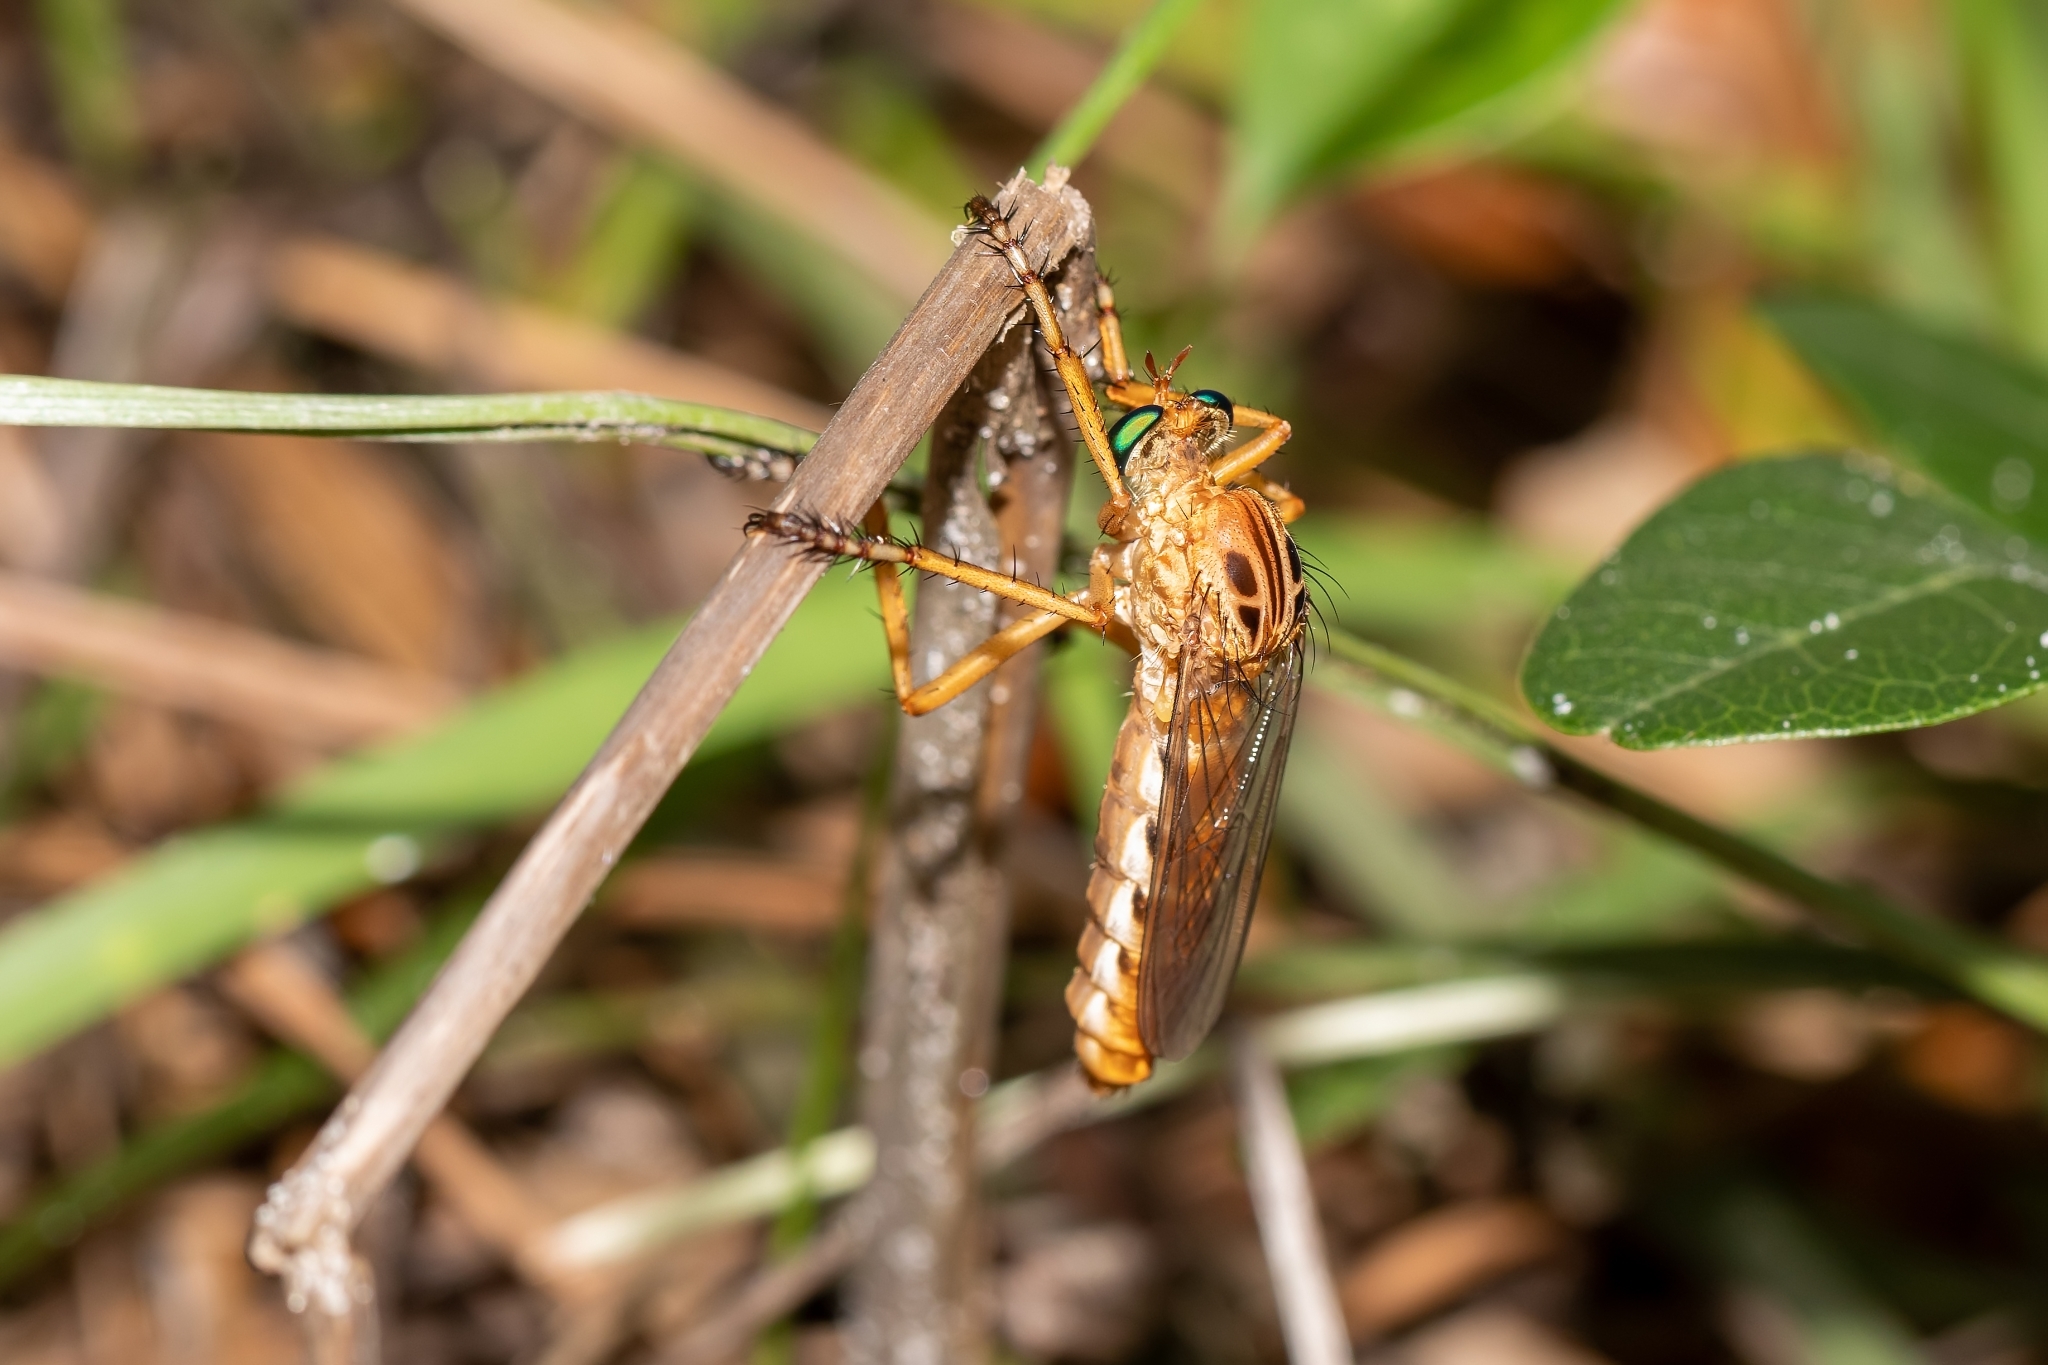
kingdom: Animalia
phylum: Arthropoda
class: Insecta
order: Diptera
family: Asilidae
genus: Diogmites
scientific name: Diogmites esuriens
